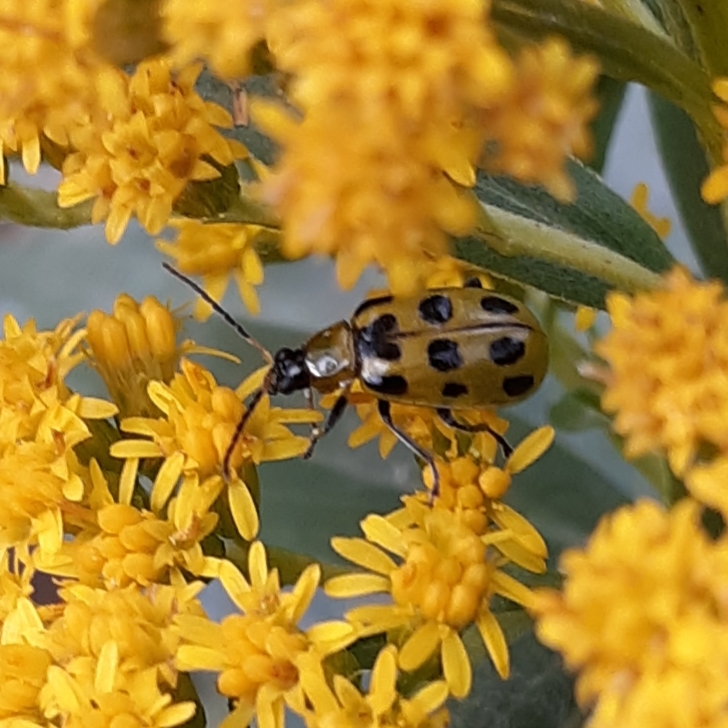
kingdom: Animalia
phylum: Arthropoda
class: Insecta
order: Coleoptera
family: Chrysomelidae
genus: Diabrotica
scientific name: Diabrotica undecimpunctata
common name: Spotted cucumber beetle
